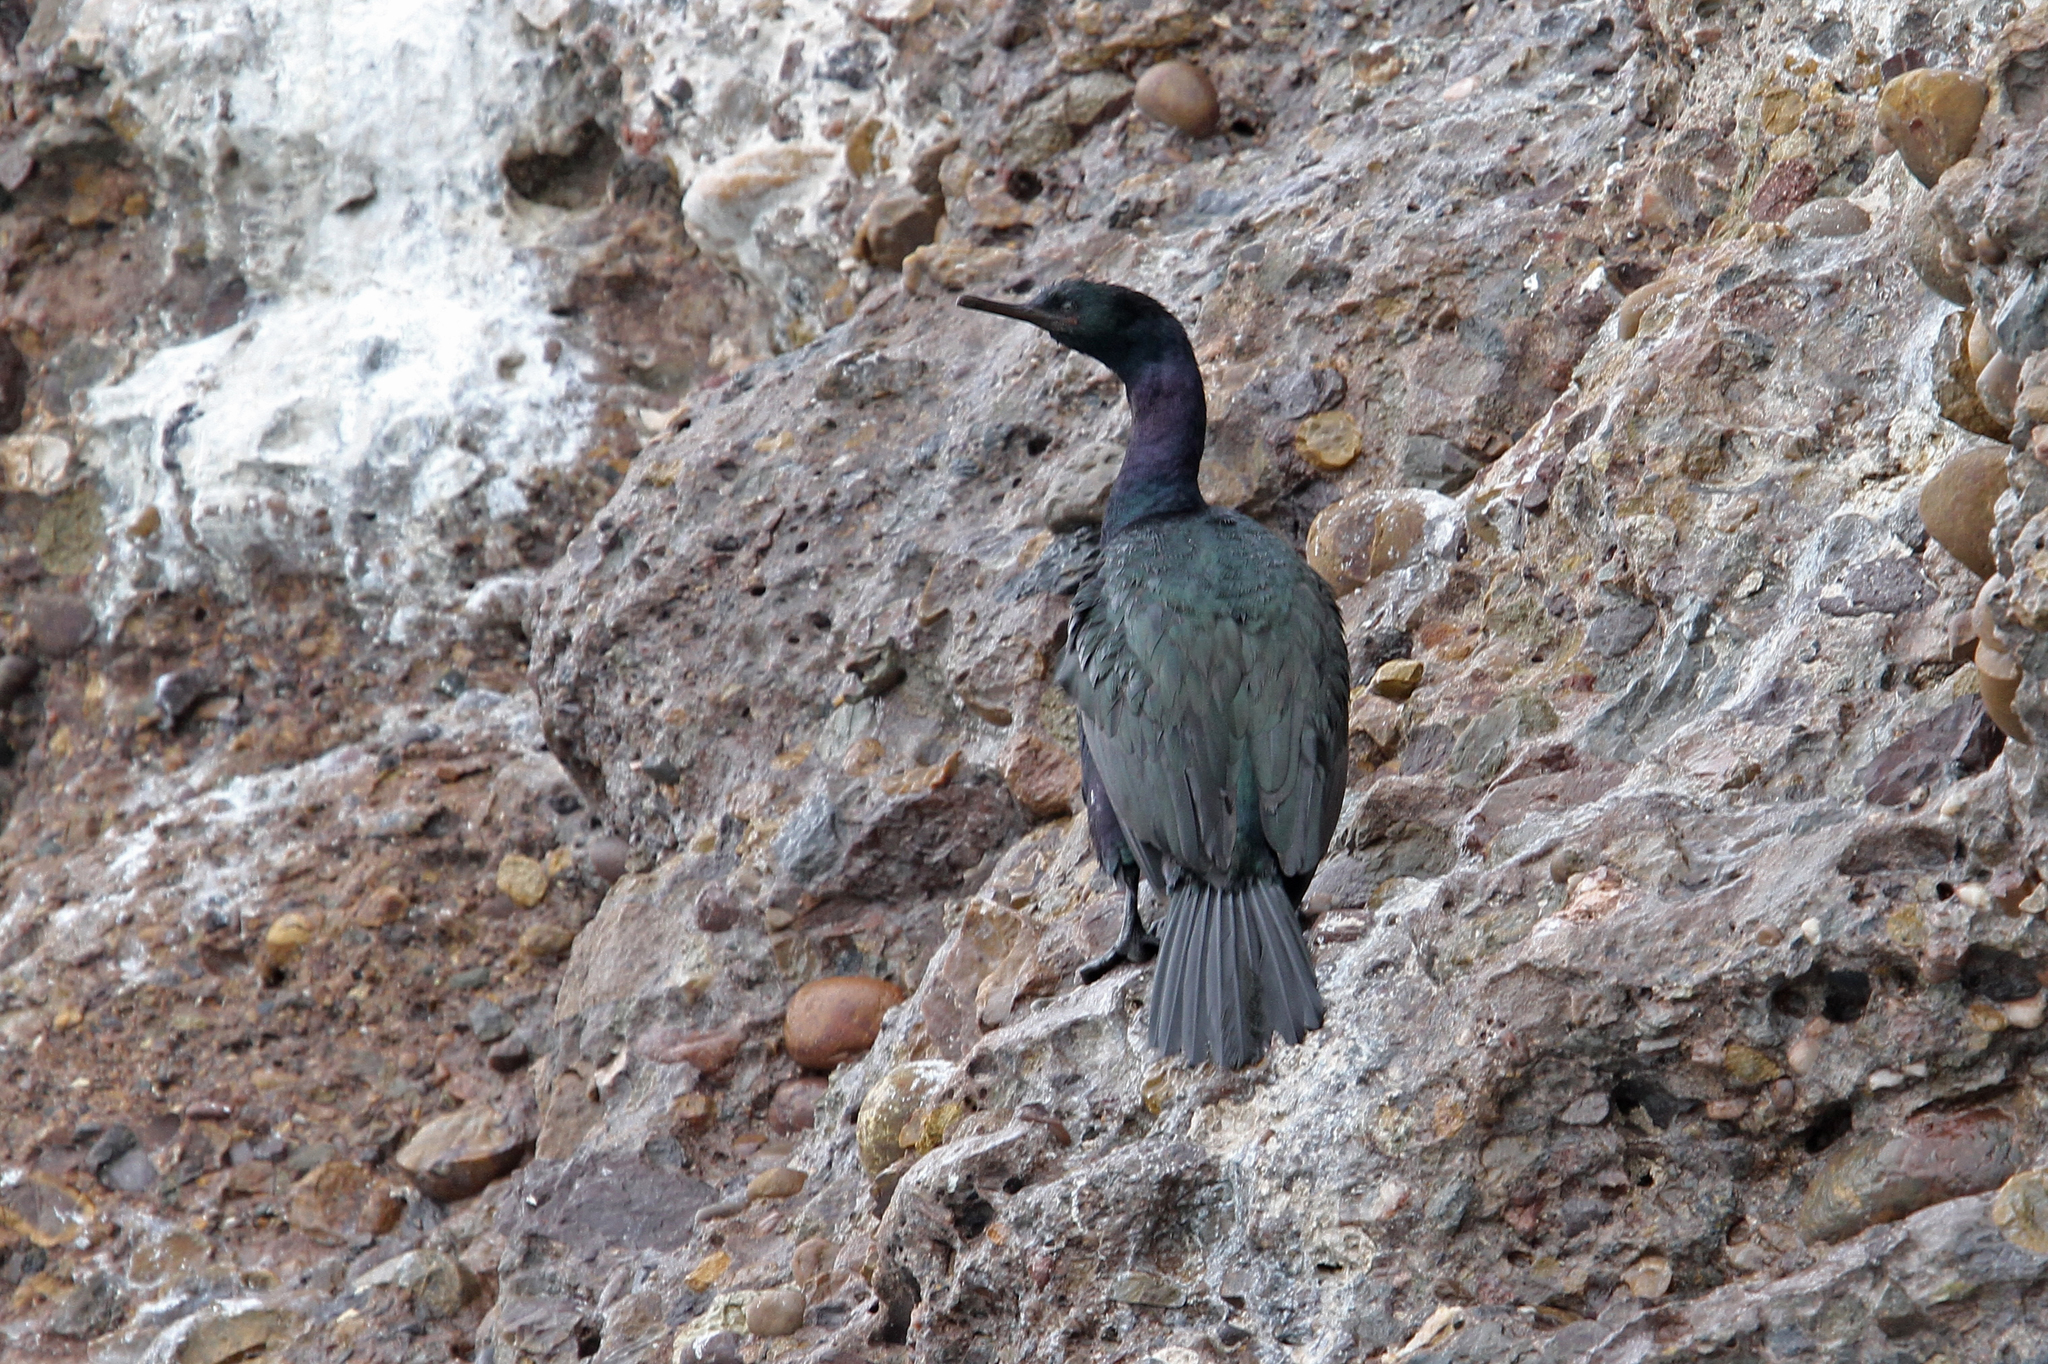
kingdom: Animalia
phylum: Chordata
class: Aves
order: Suliformes
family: Phalacrocoracidae
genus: Phalacrocorax
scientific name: Phalacrocorax pelagicus
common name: Pelagic cormorant
